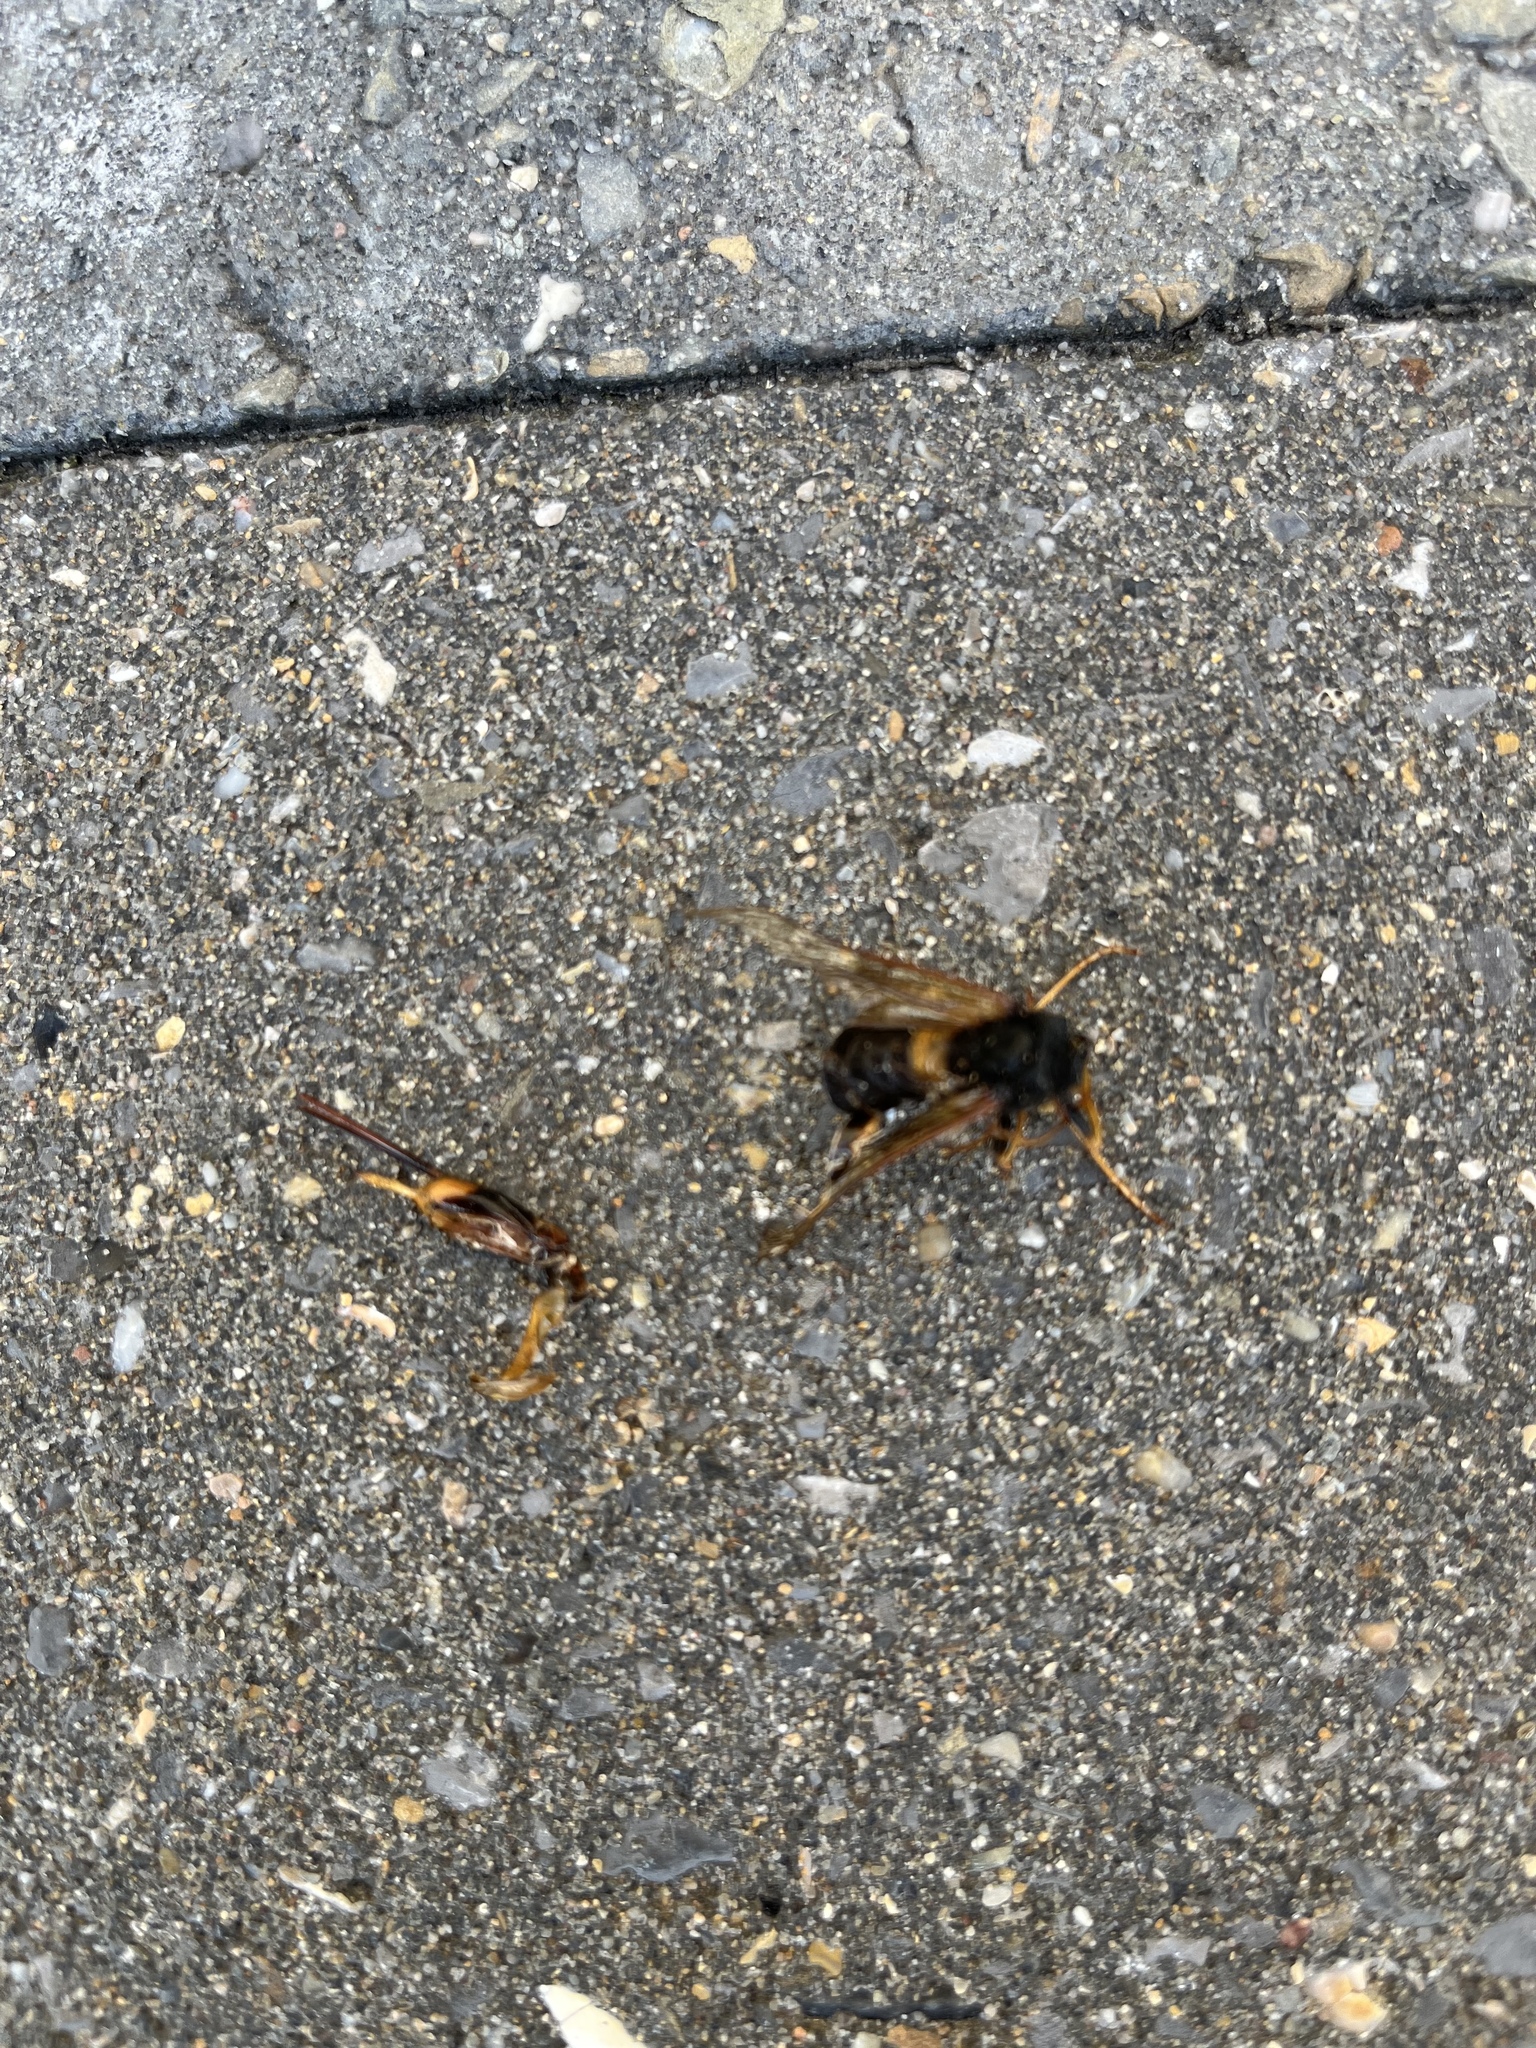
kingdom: Animalia
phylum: Arthropoda
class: Insecta
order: Hymenoptera
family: Siricidae
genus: Urocerus
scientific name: Urocerus gigas
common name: Giant woodwasp
